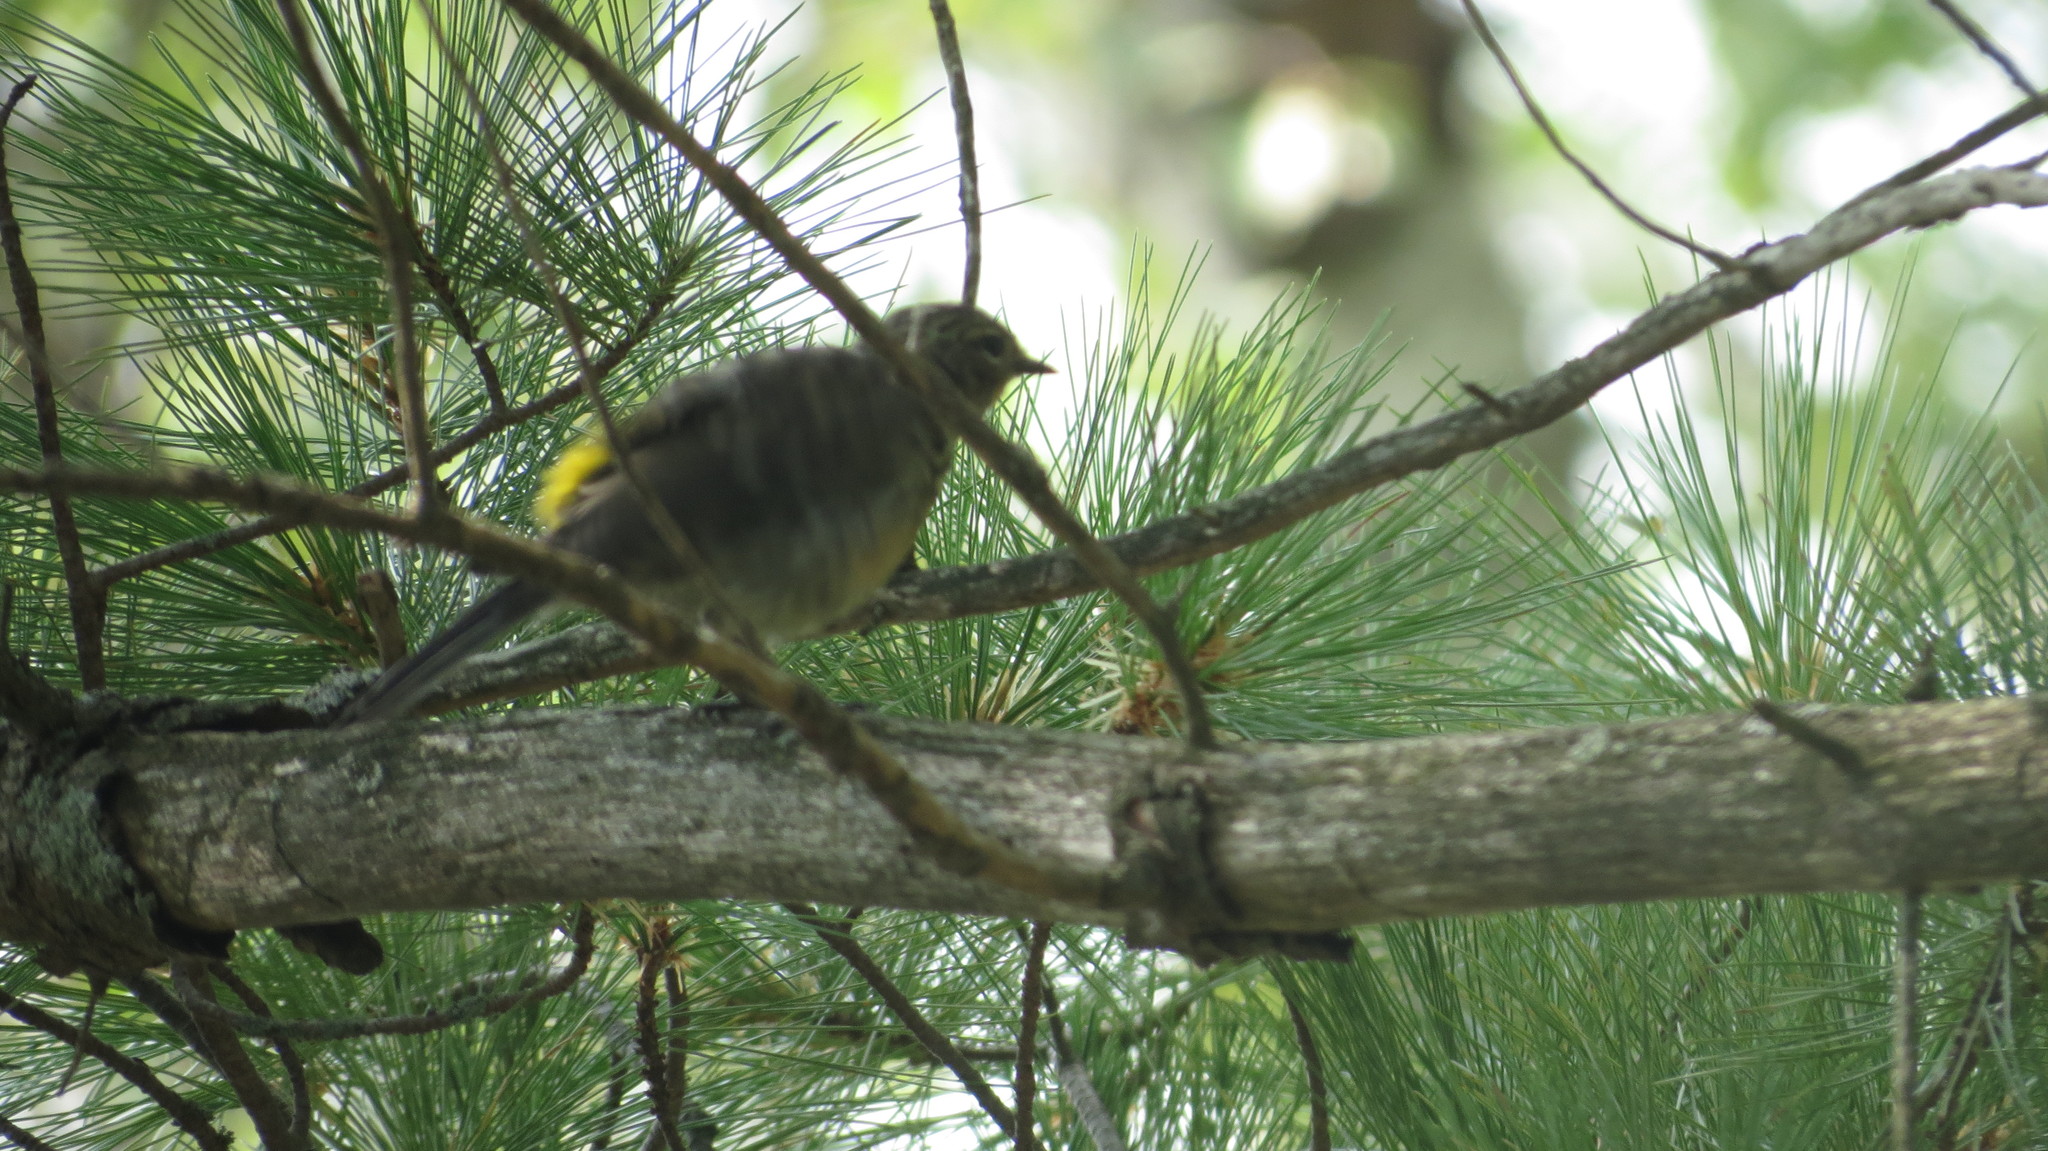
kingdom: Animalia
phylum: Chordata
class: Aves
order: Passeriformes
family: Parulidae
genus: Setophaga
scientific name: Setophaga coronata
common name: Myrtle warbler
